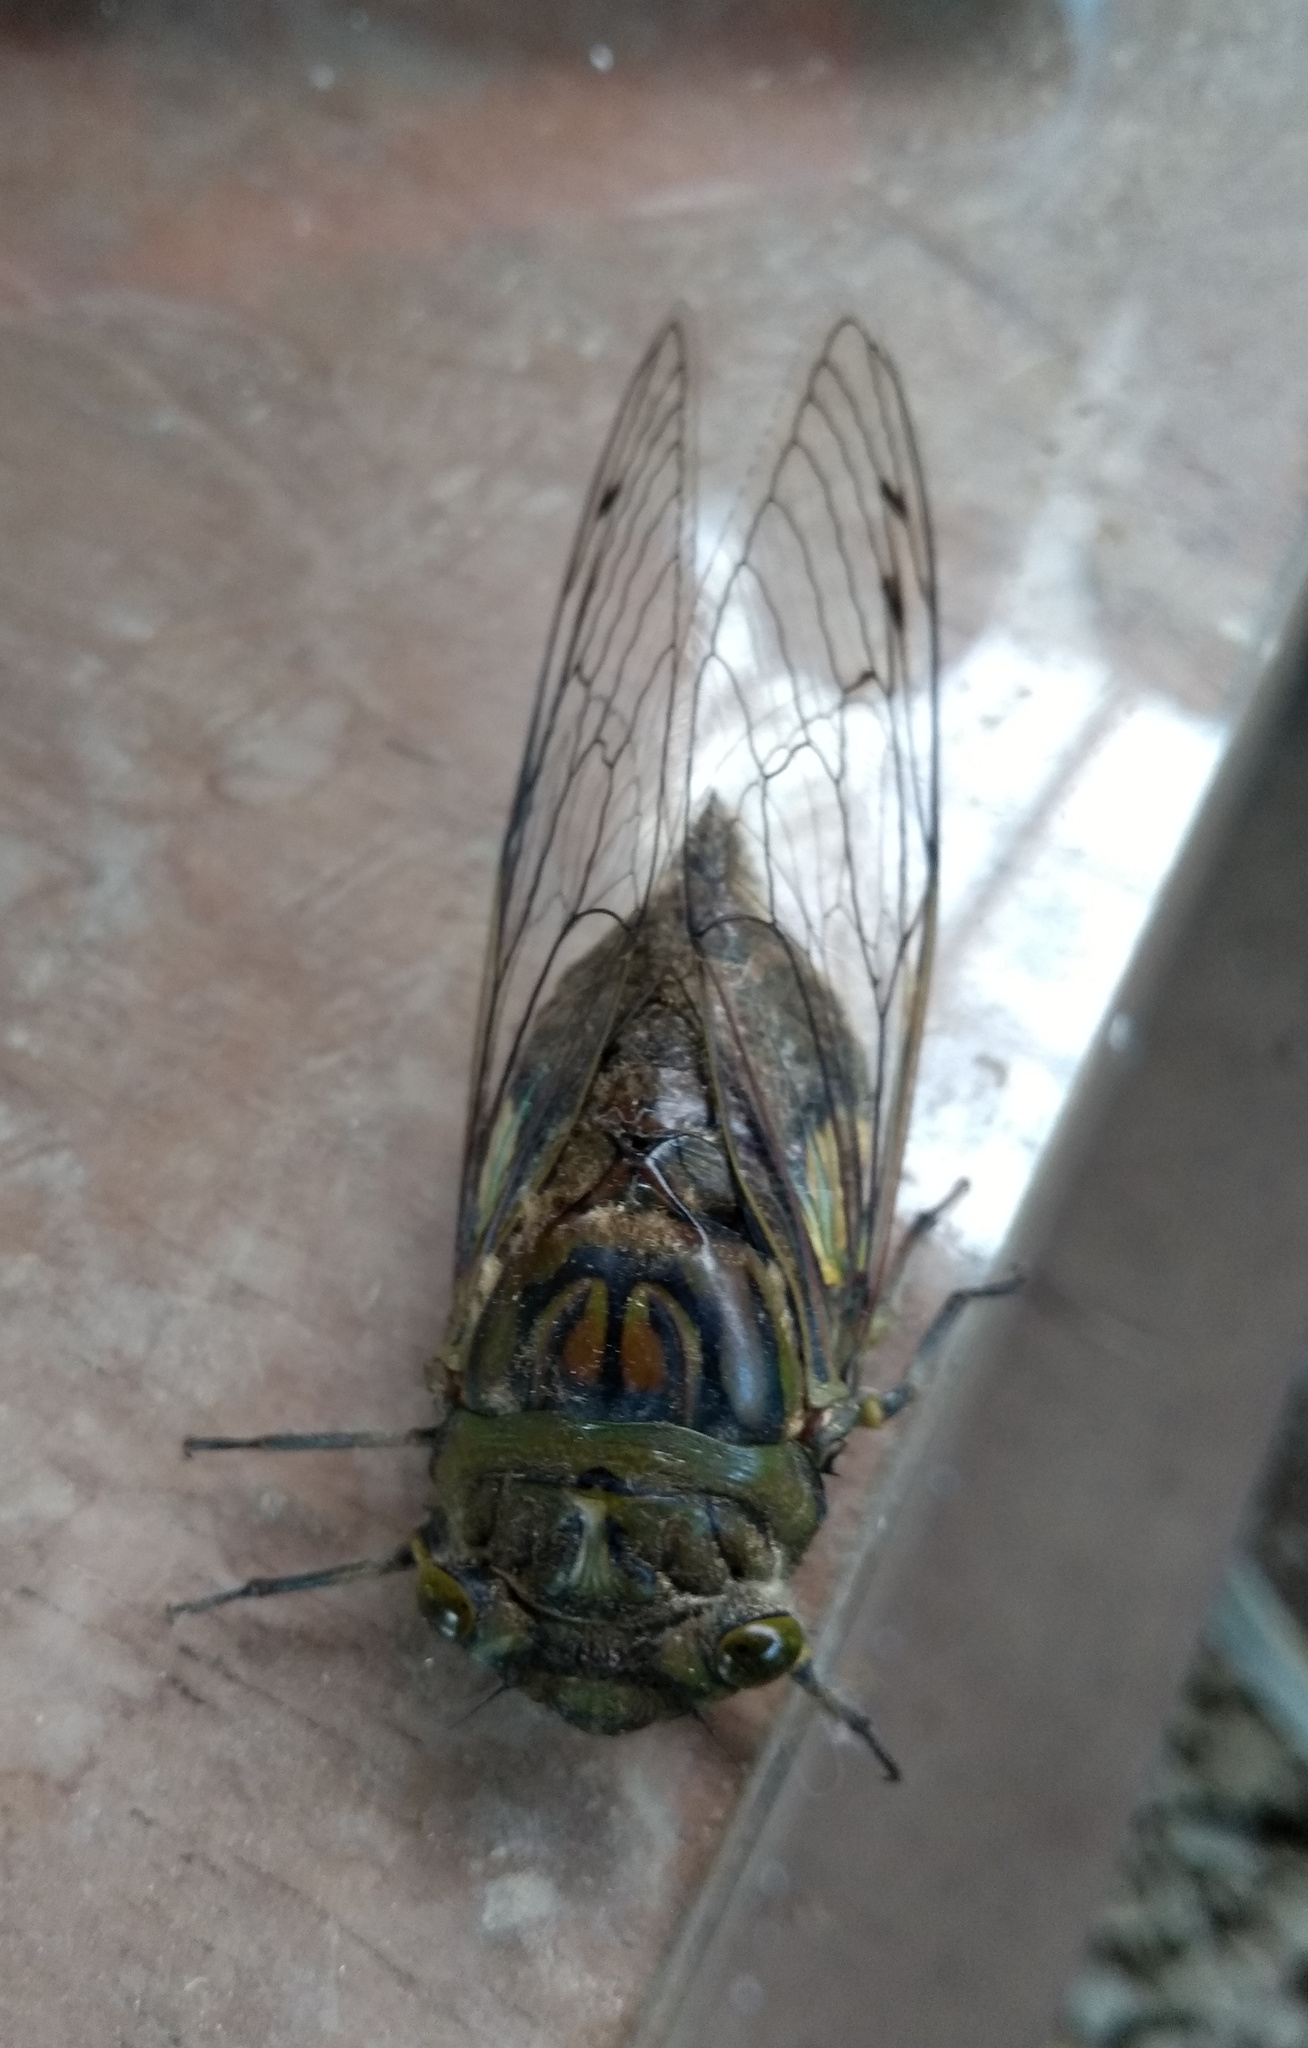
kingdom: Animalia
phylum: Arthropoda
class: Insecta
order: Hemiptera
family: Cicadidae
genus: Quesada
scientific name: Quesada gigas
